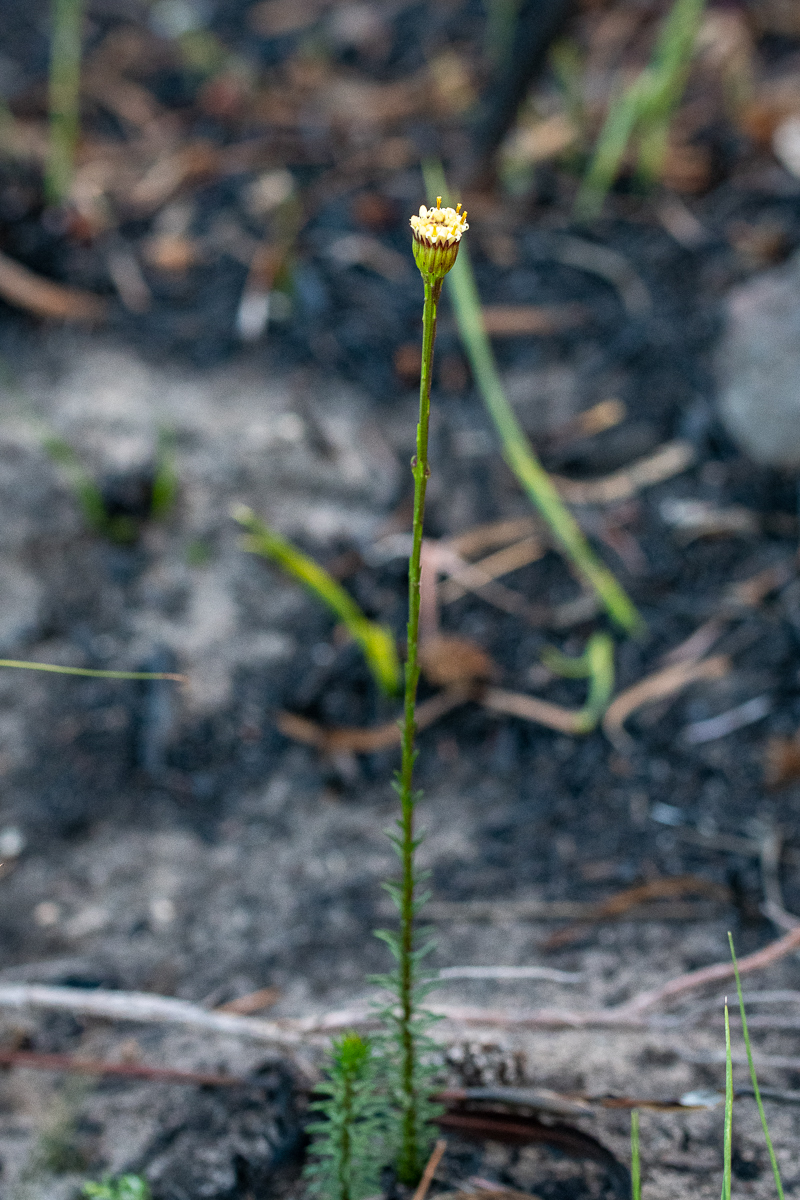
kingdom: Plantae
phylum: Tracheophyta
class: Magnoliopsida
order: Asterales
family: Asteraceae
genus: Senecio
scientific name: Senecio triqueter
